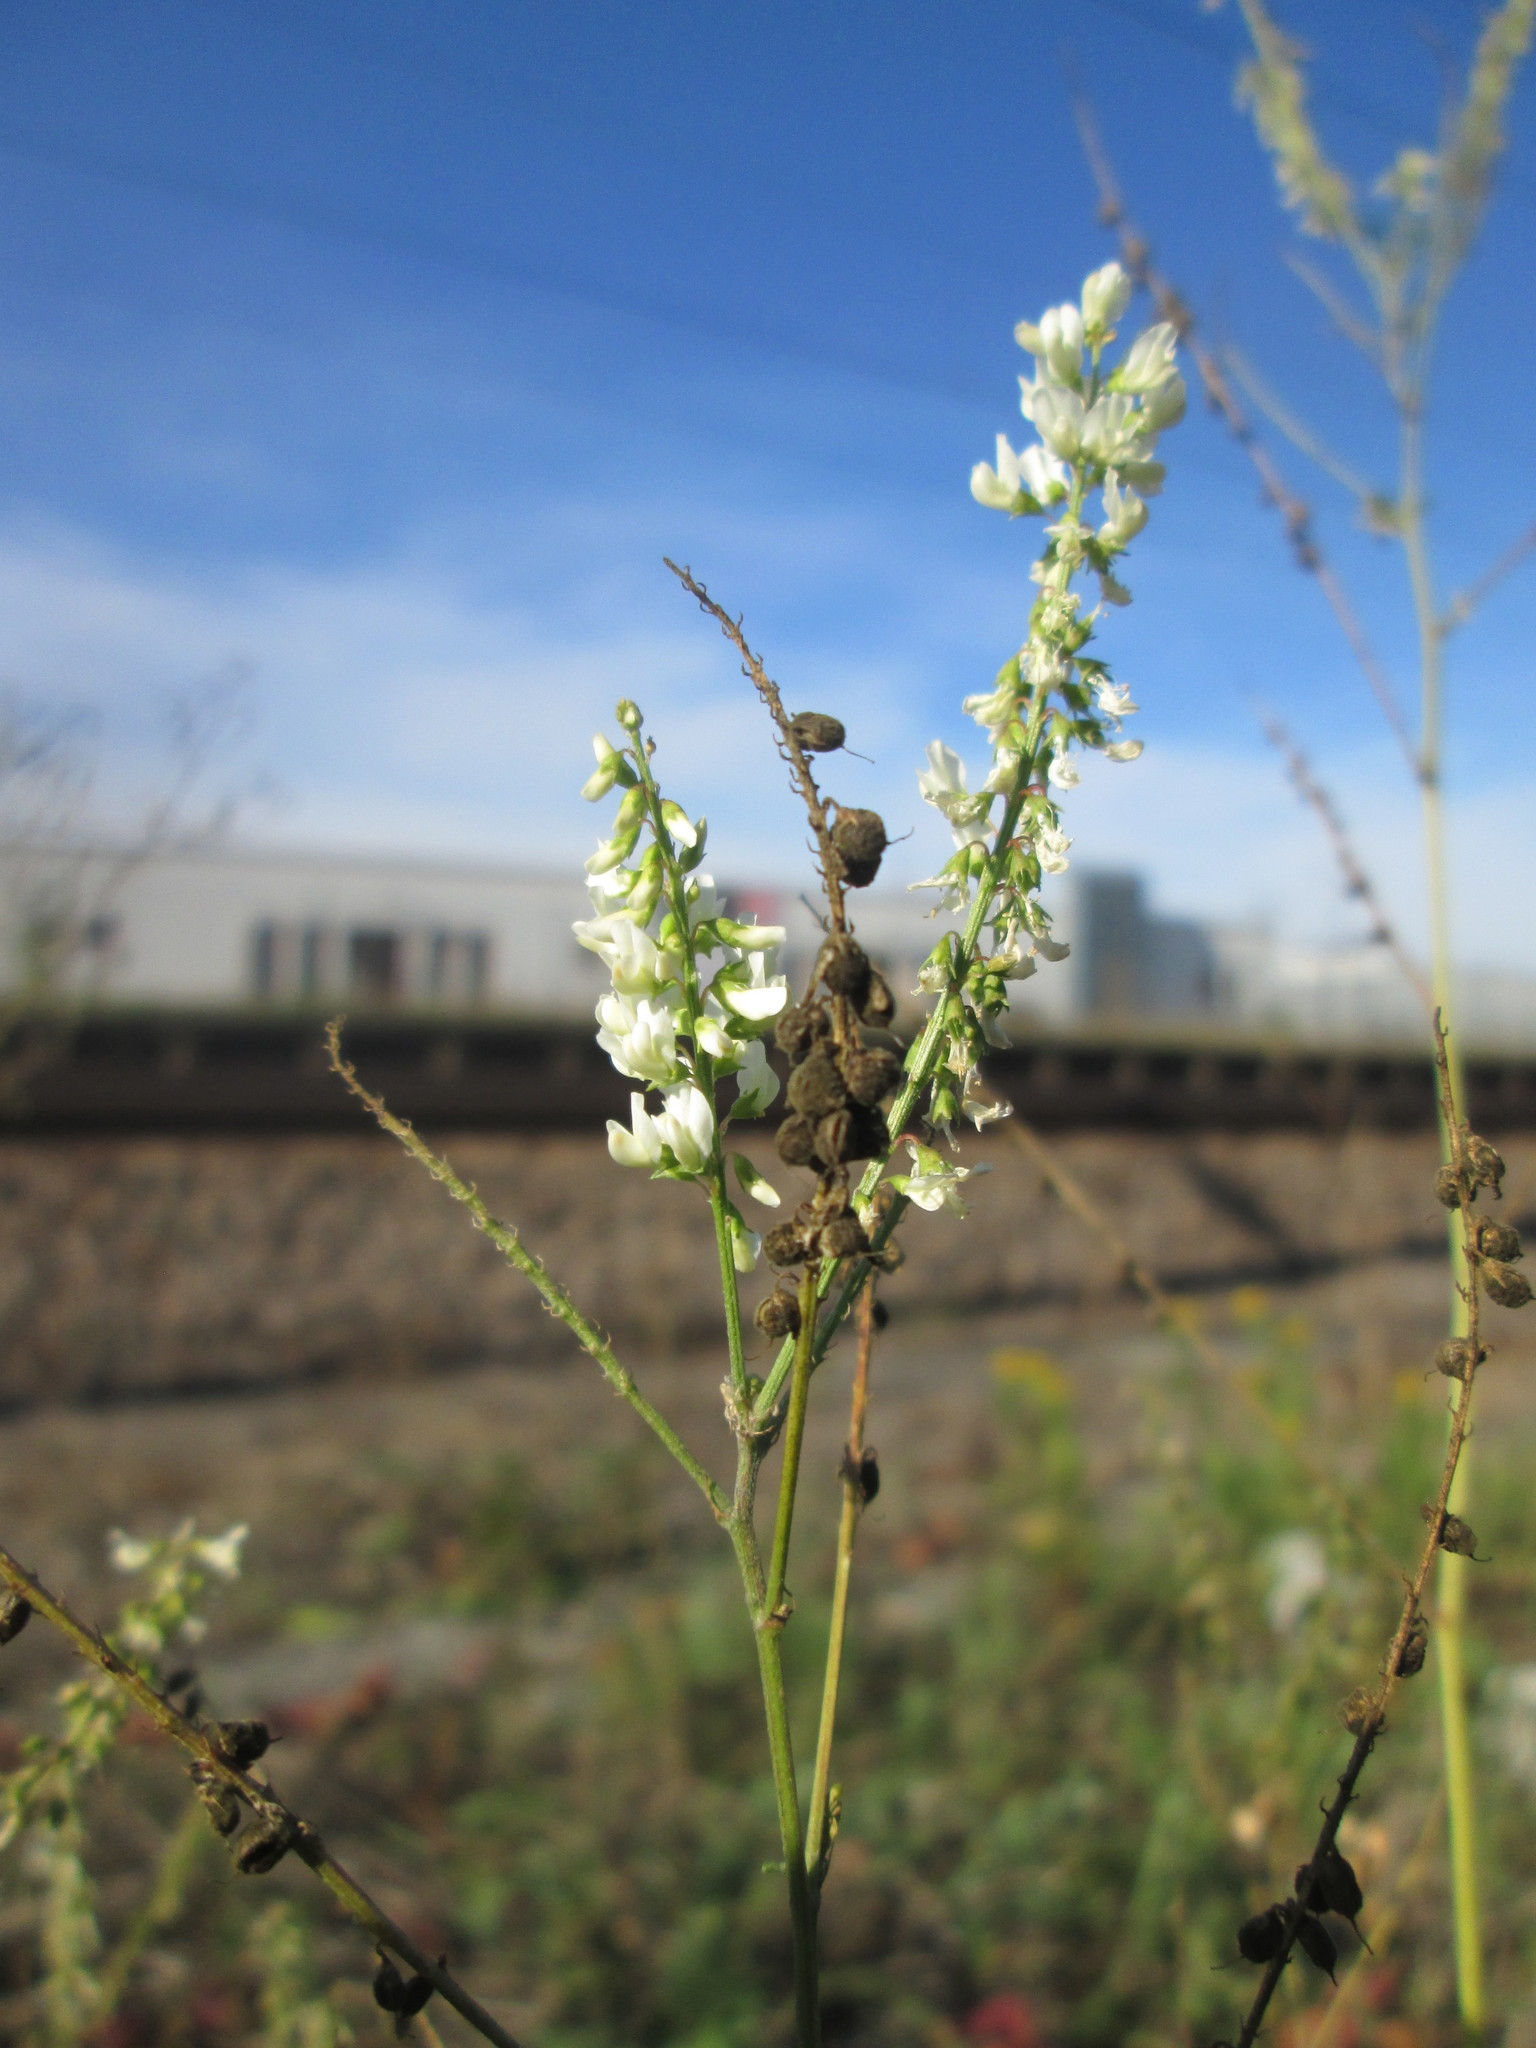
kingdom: Plantae
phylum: Tracheophyta
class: Magnoliopsida
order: Fabales
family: Fabaceae
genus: Melilotus
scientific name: Melilotus albus
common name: White melilot
